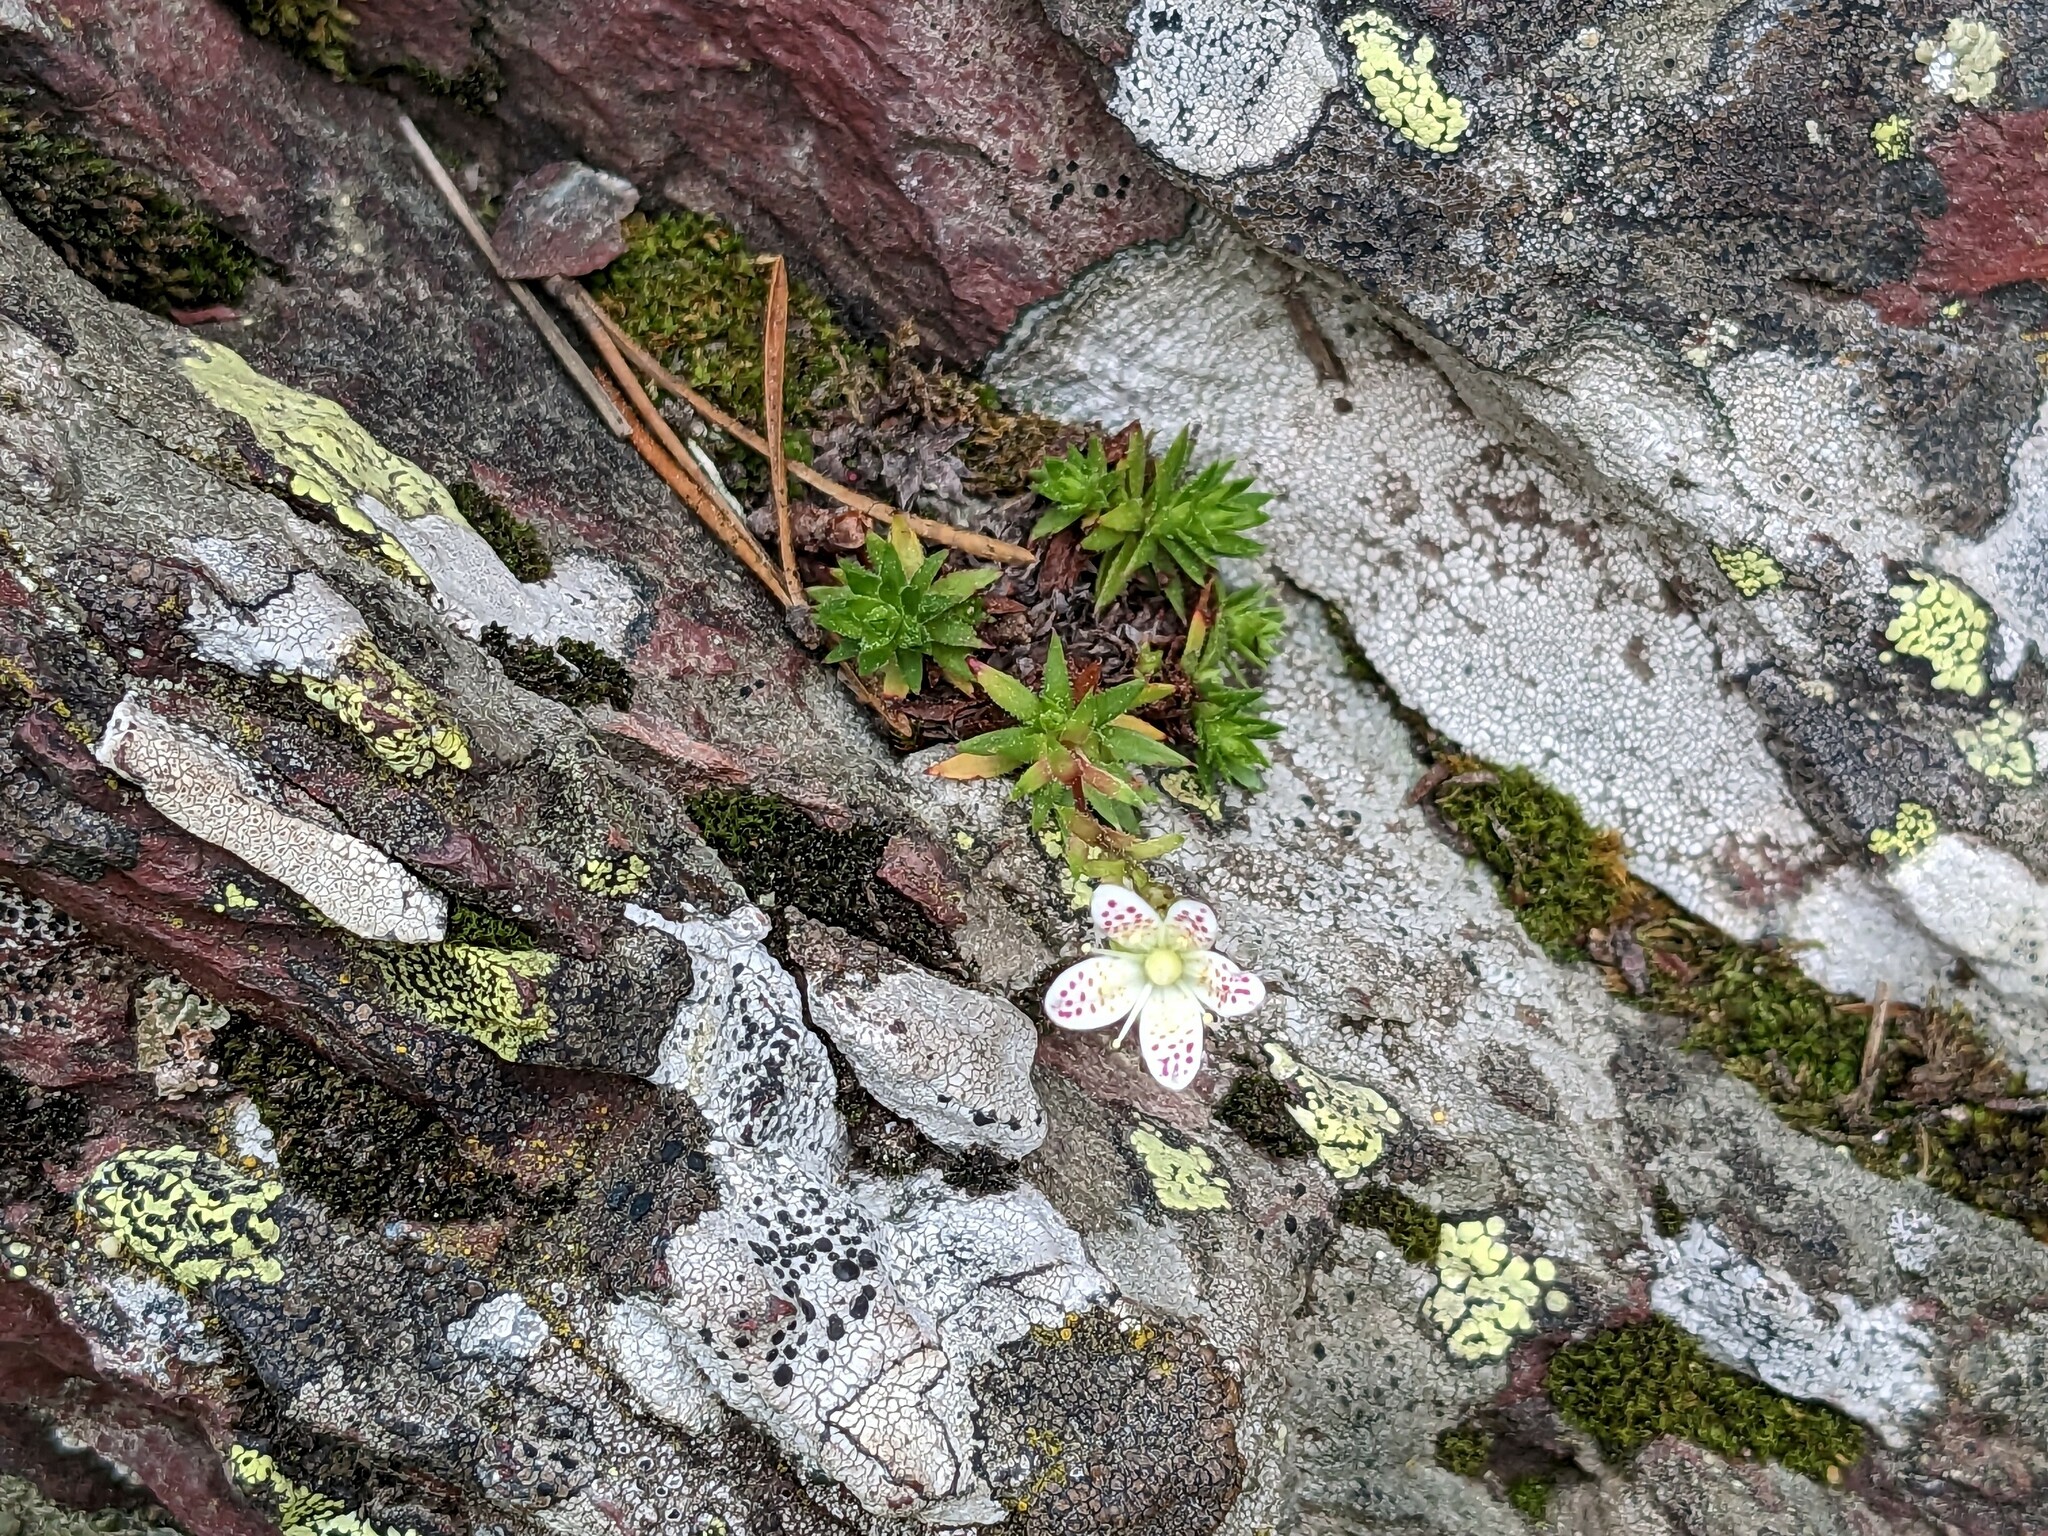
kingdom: Plantae
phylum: Tracheophyta
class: Magnoliopsida
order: Saxifragales
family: Saxifragaceae
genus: Saxifraga
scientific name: Saxifraga bronchialis
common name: Matted saxifrage
